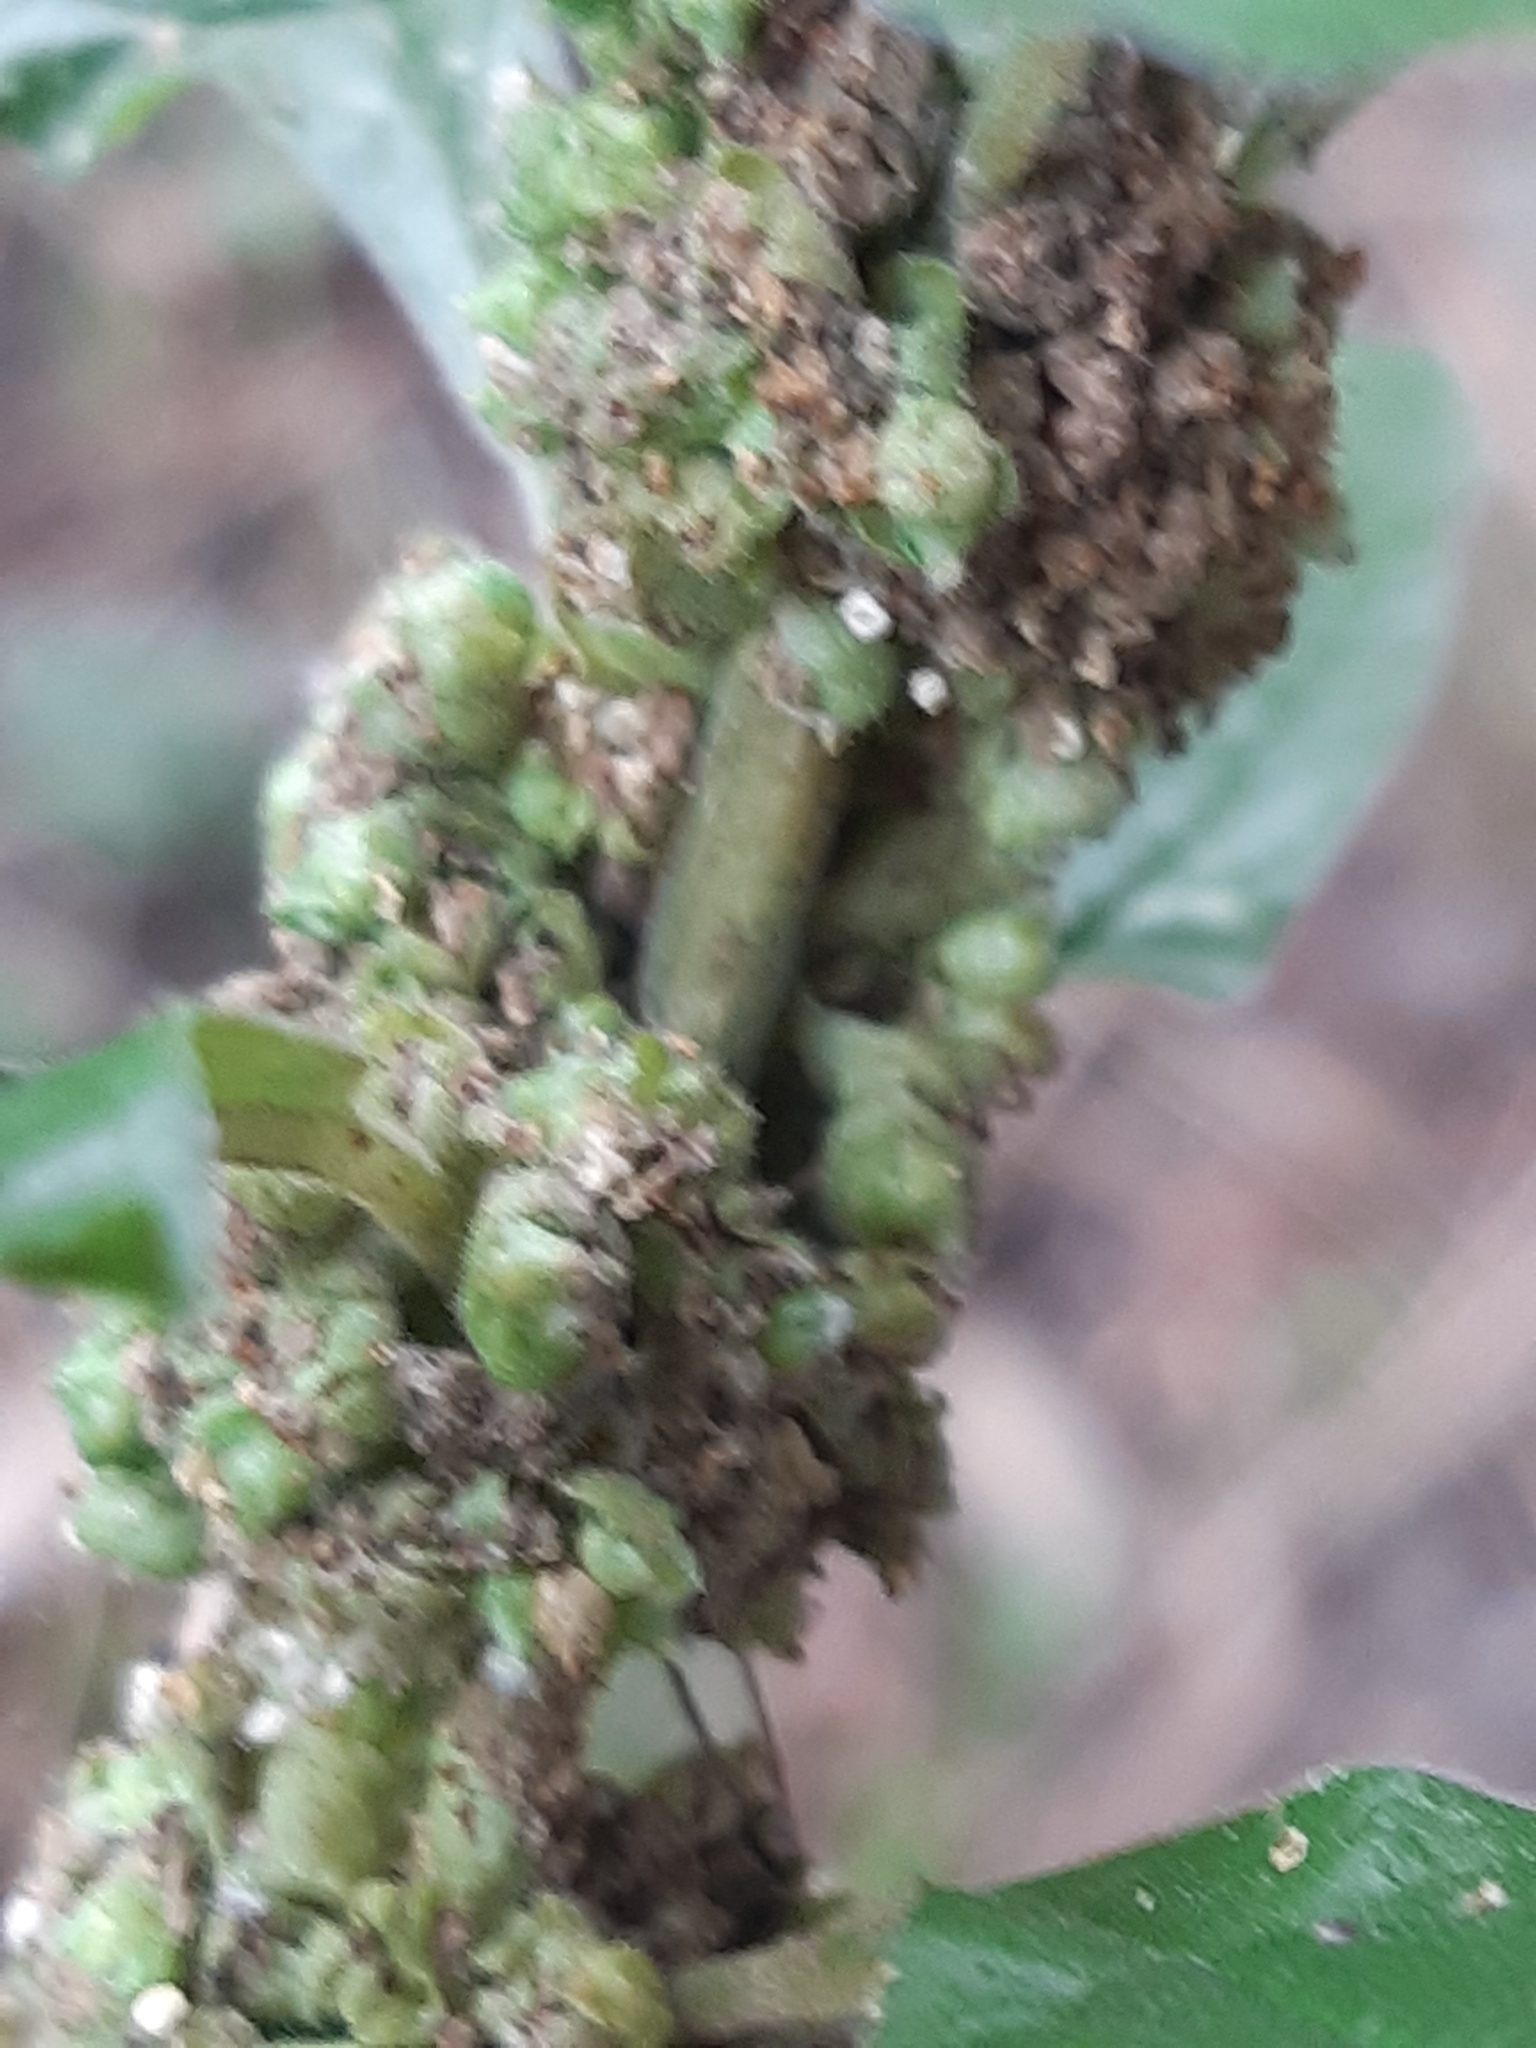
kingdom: Plantae
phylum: Tracheophyta
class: Magnoliopsida
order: Rosales
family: Urticaceae
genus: Parietaria
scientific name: Parietaria officinalis
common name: Eastern pellitory-of-the-wall
